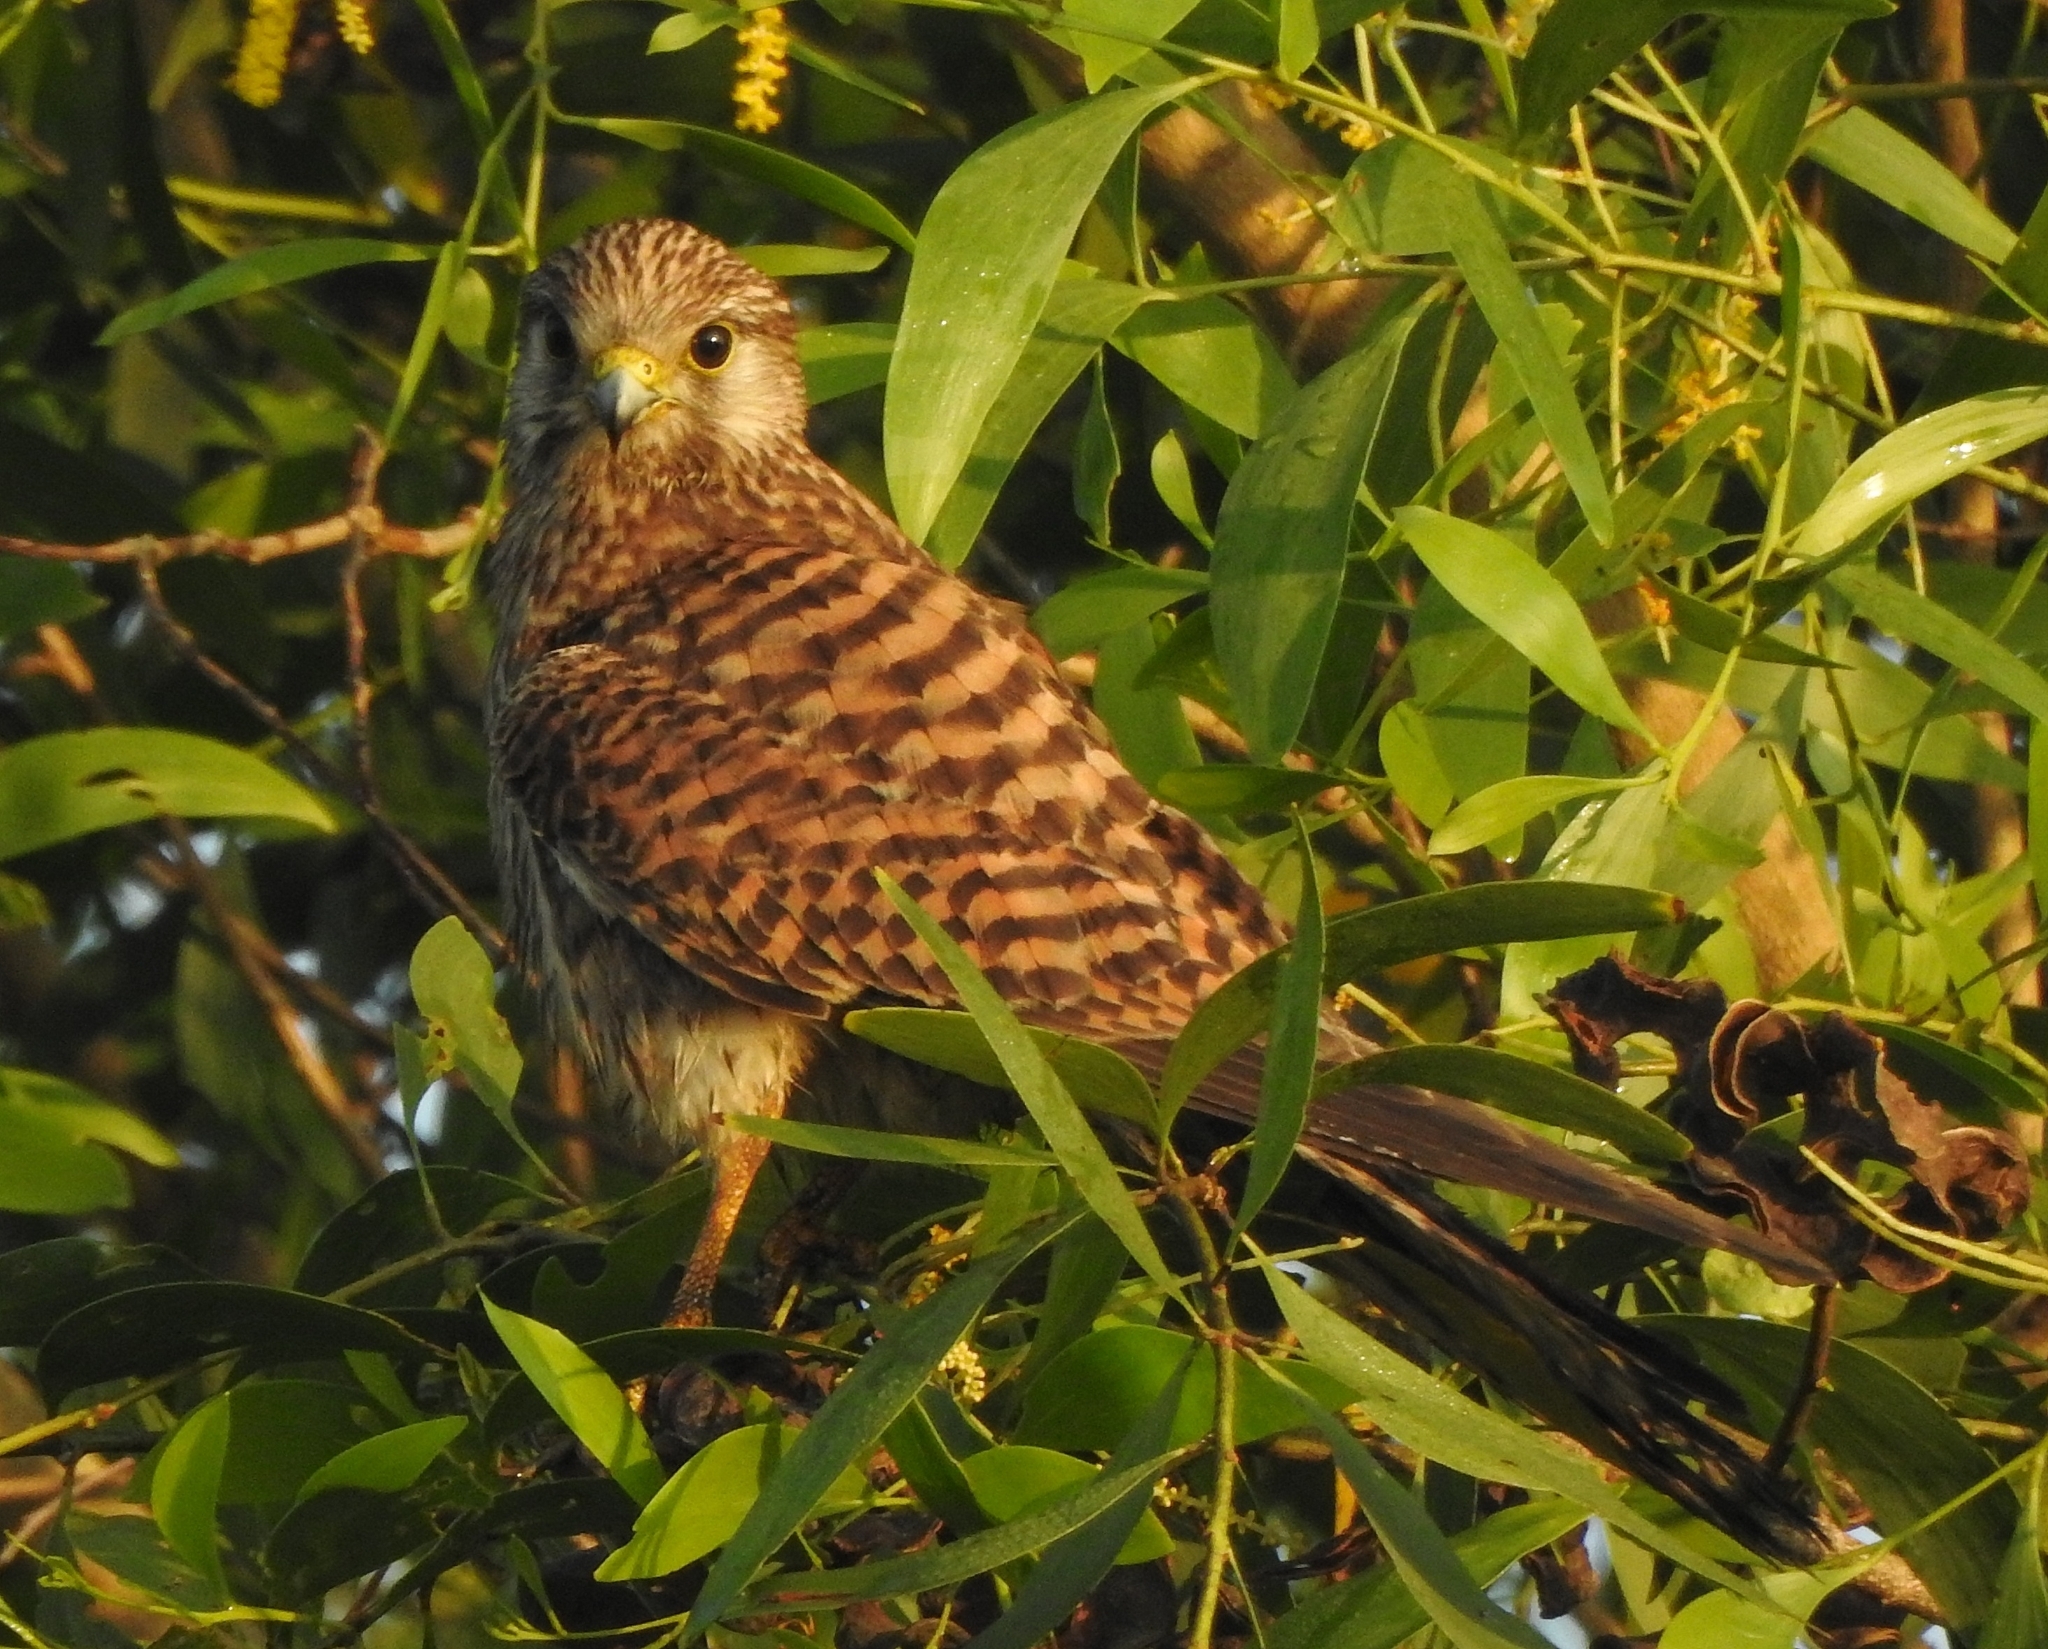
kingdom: Animalia
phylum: Chordata
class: Aves
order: Falconiformes
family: Falconidae
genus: Falco
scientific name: Falco tinnunculus
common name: Common kestrel
